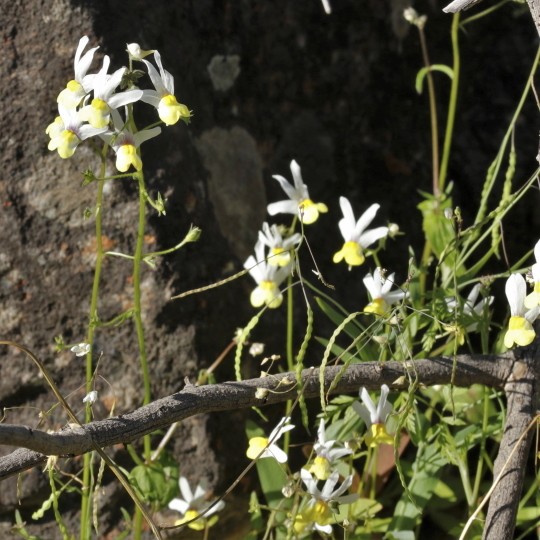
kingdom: Plantae
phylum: Tracheophyta
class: Magnoliopsida
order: Lamiales
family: Scrophulariaceae
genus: Nemesia
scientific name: Nemesia anisocarpa
